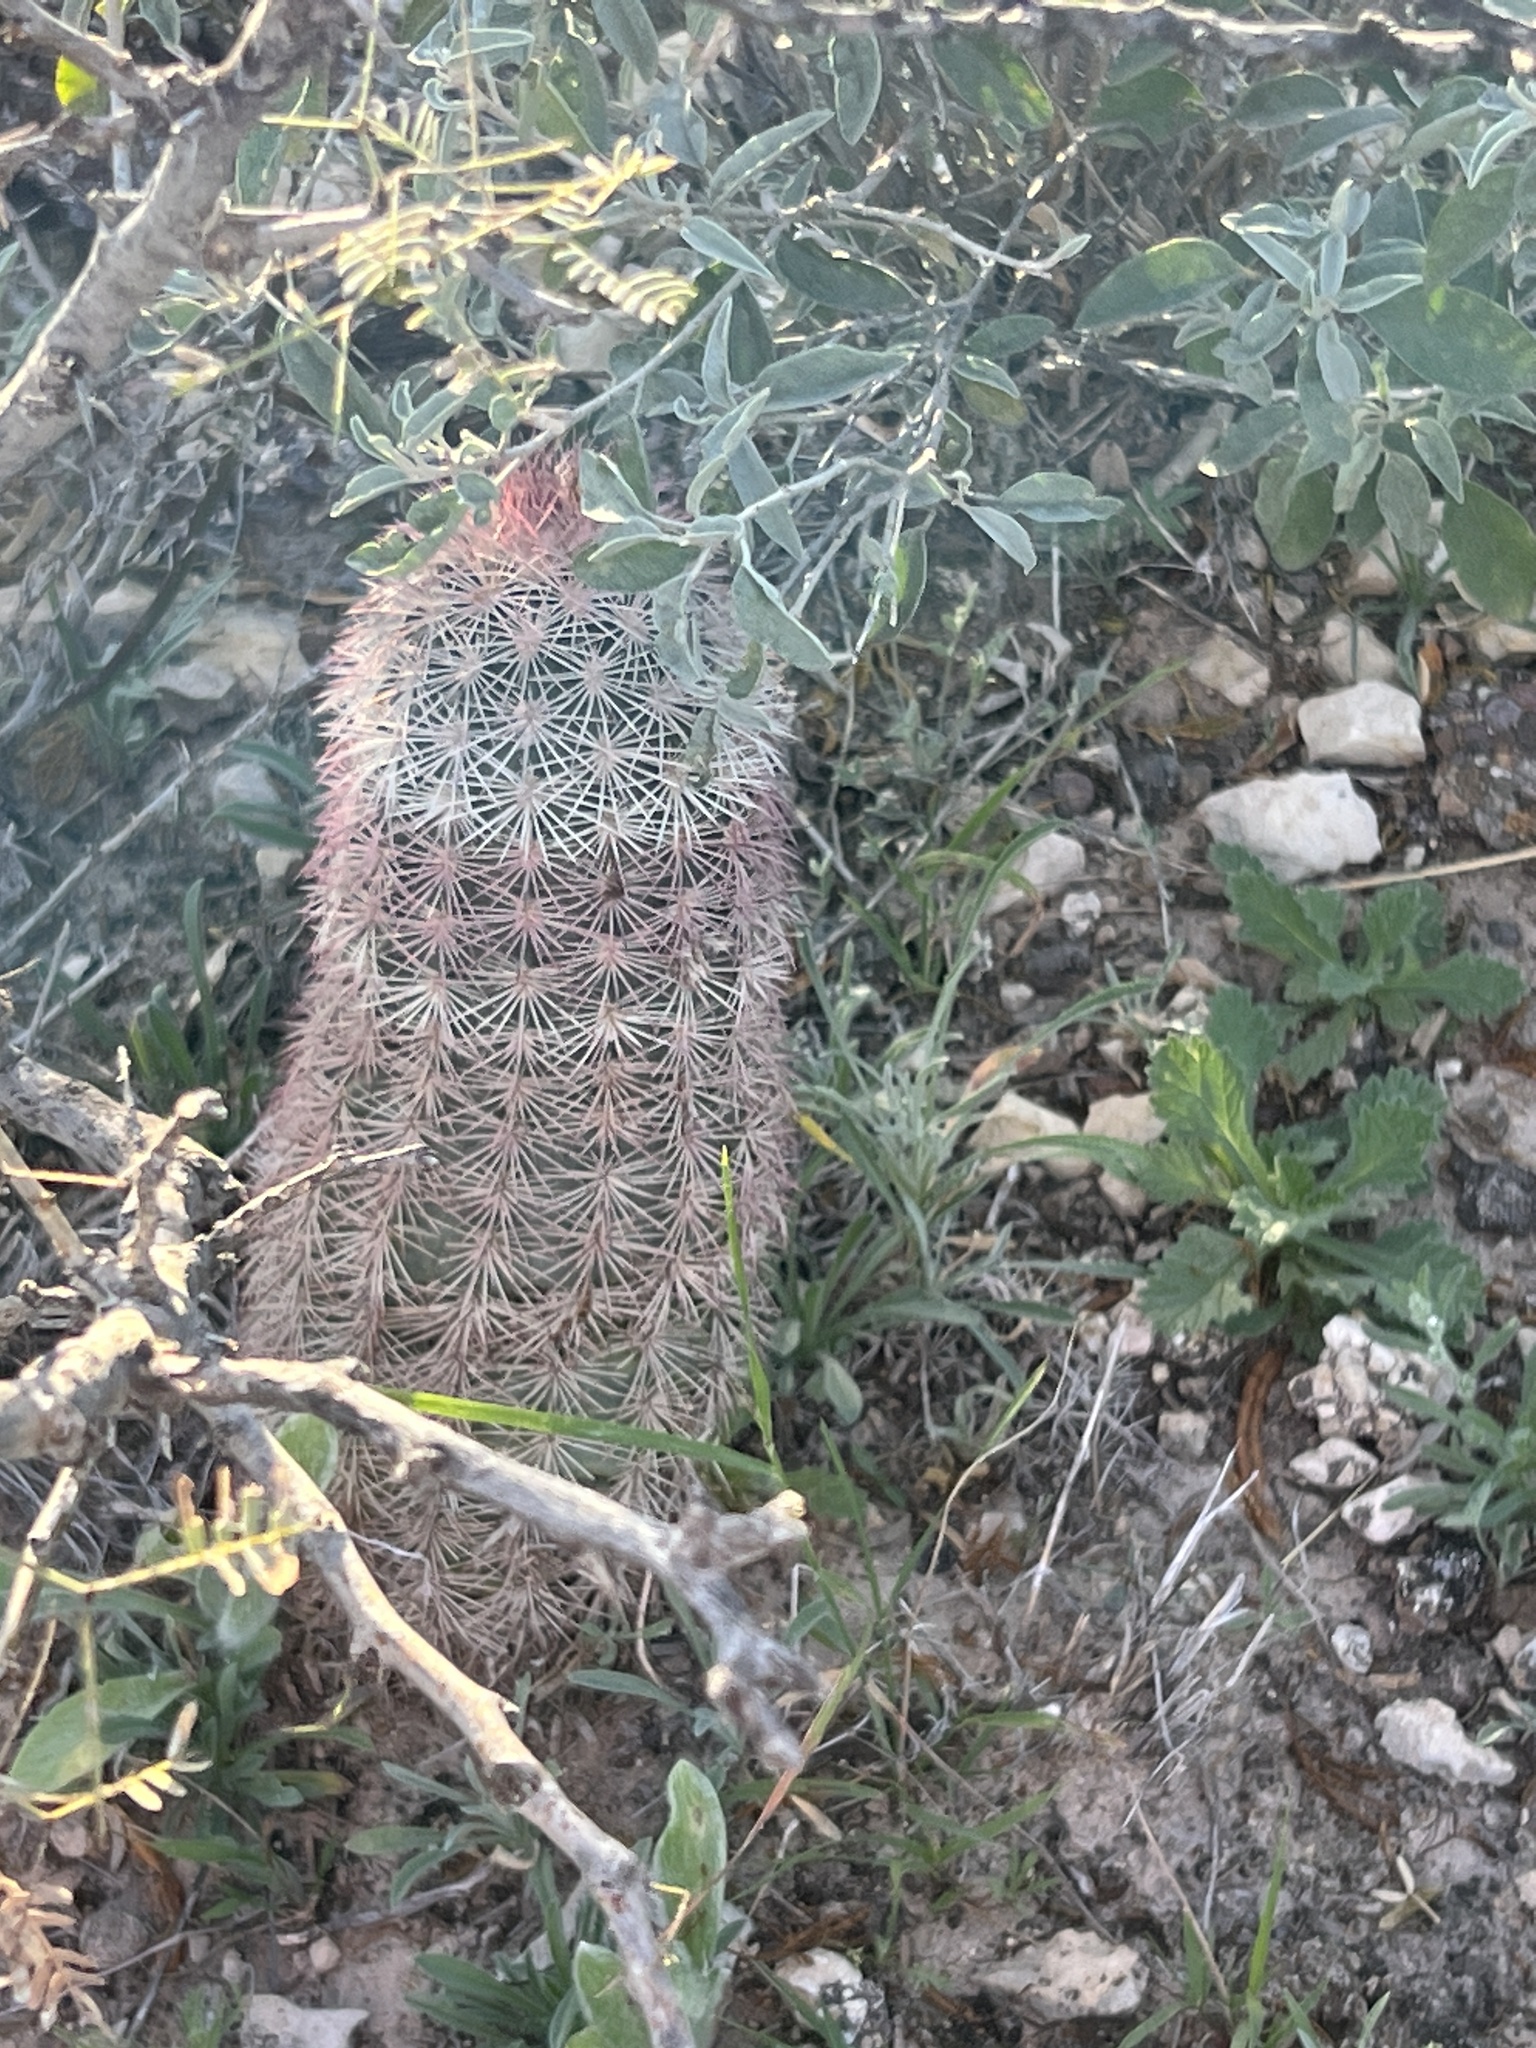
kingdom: Plantae
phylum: Tracheophyta
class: Magnoliopsida
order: Caryophyllales
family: Cactaceae
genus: Echinocereus
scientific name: Echinocereus dasyacanthus
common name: Spiny hedgehog cactus
